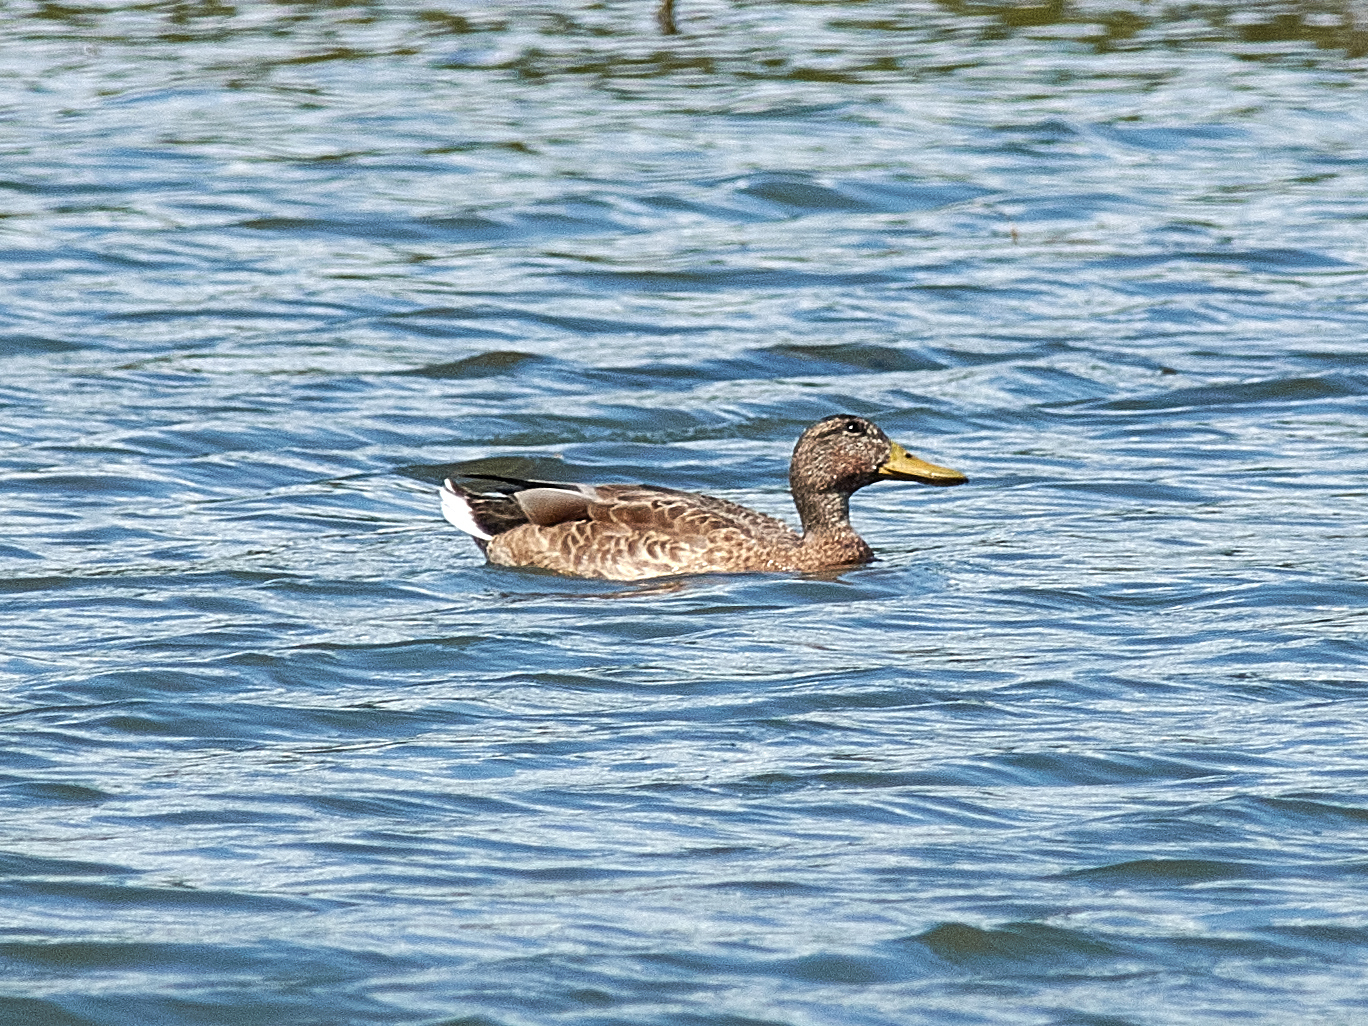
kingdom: Animalia
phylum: Chordata
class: Aves
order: Anseriformes
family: Anatidae
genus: Anas
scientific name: Anas platyrhynchos
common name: Mallard
